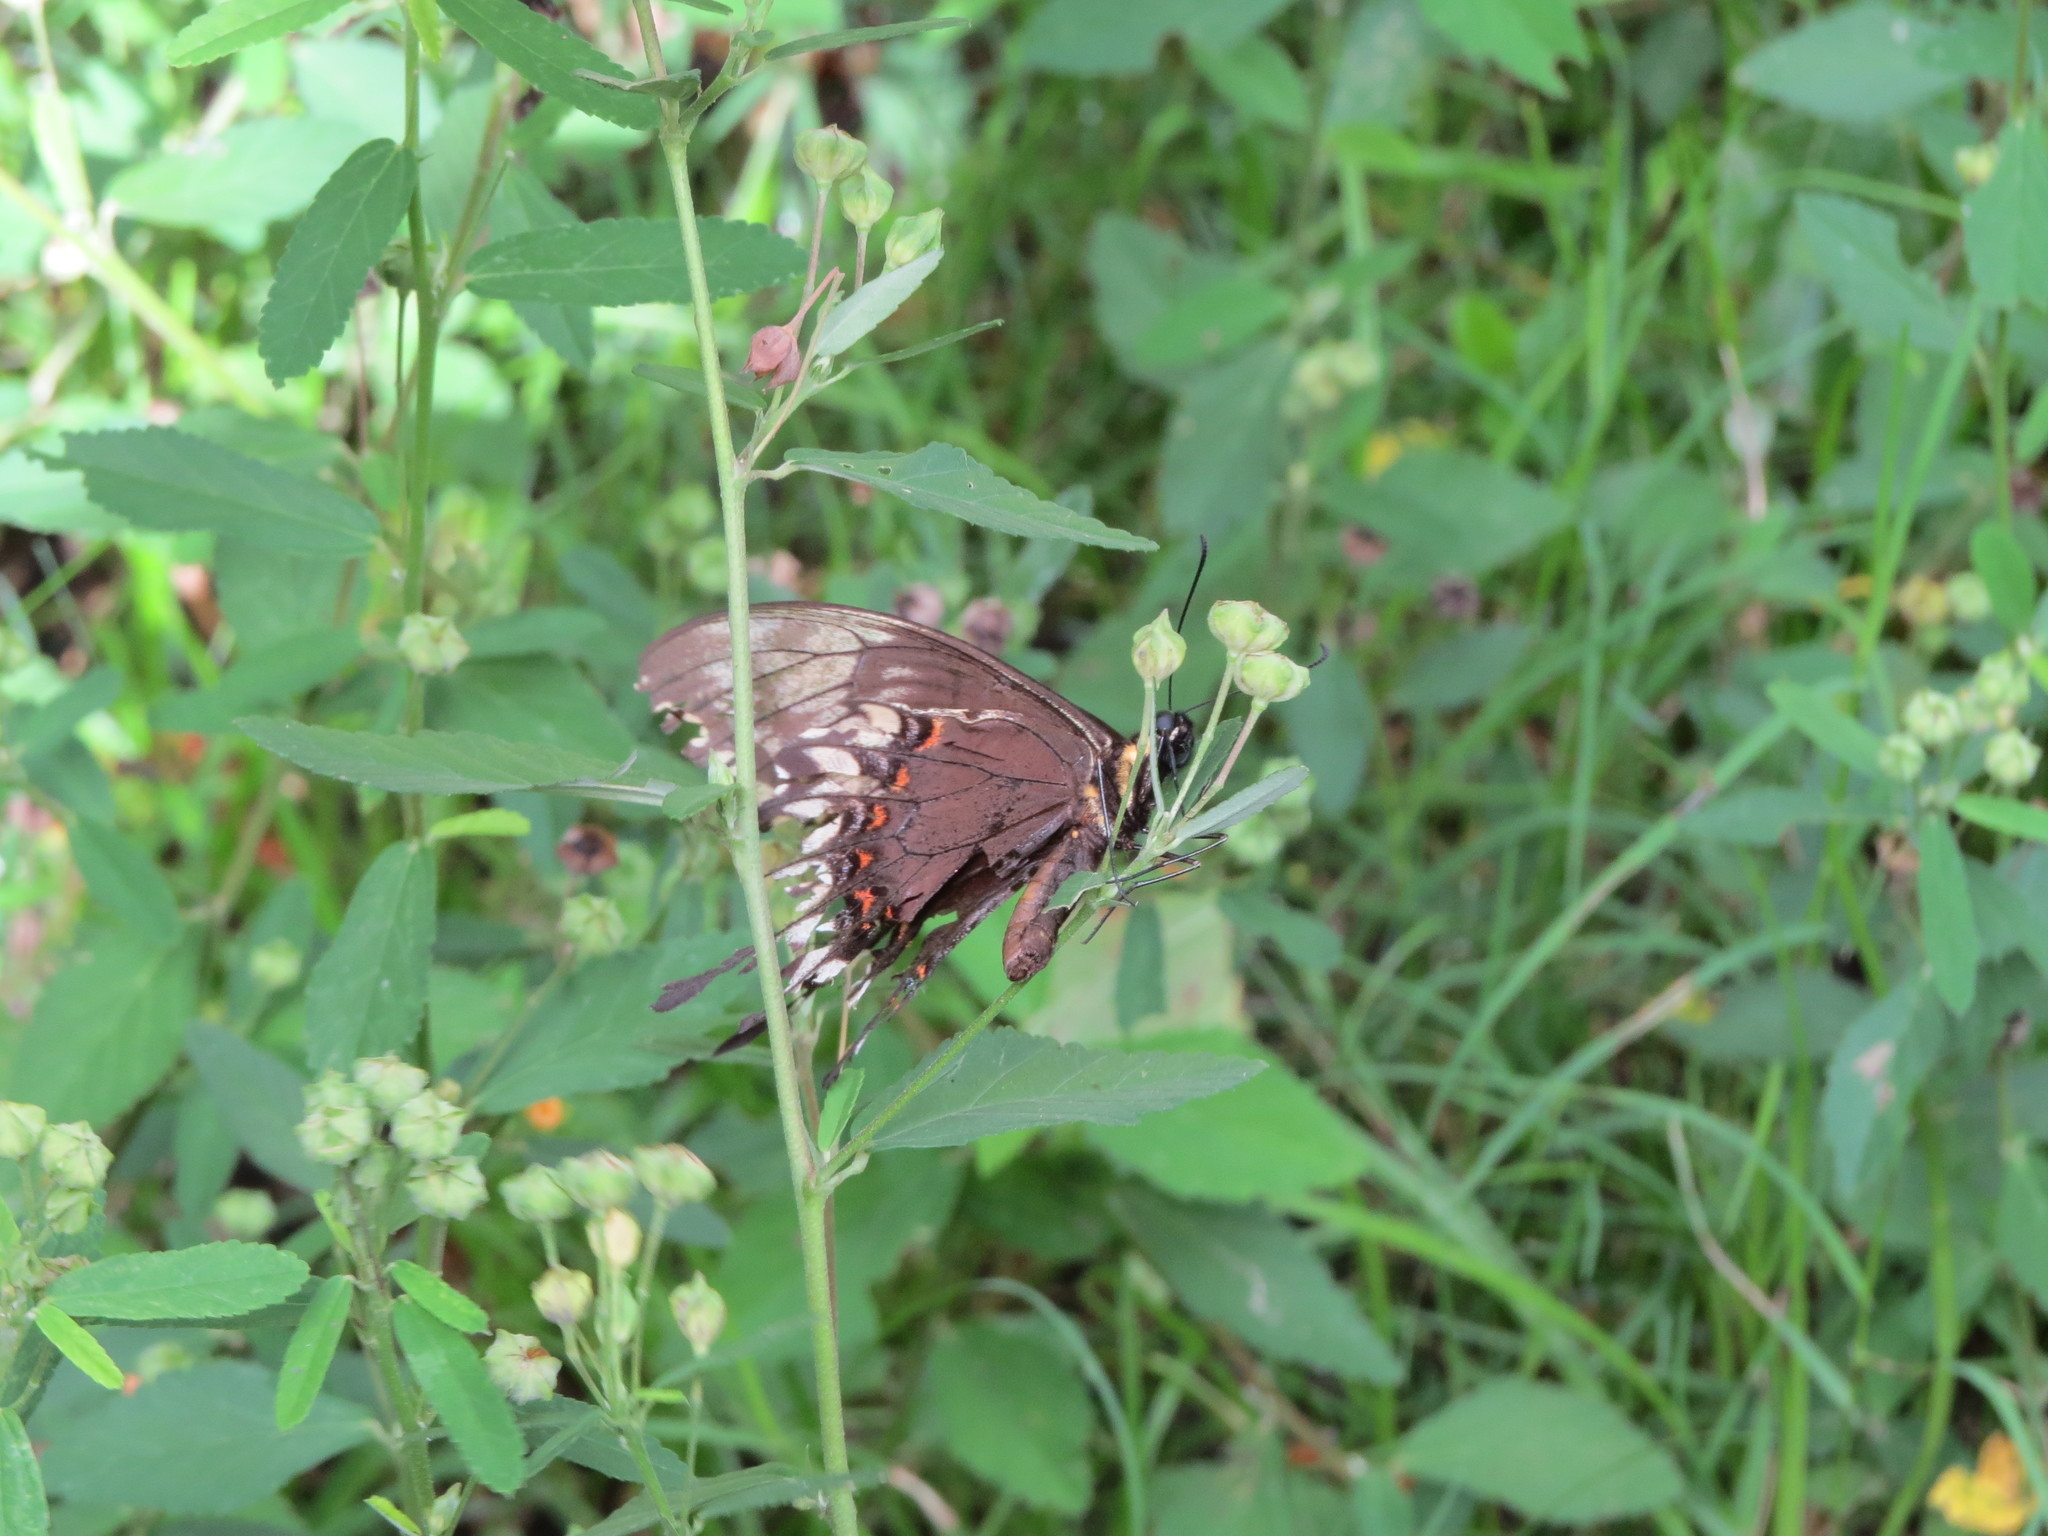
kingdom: Animalia
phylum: Arthropoda
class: Insecta
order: Lepidoptera
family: Papilionidae
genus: Papilio
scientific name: Papilio astyalus
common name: Astyalus swallowtail
